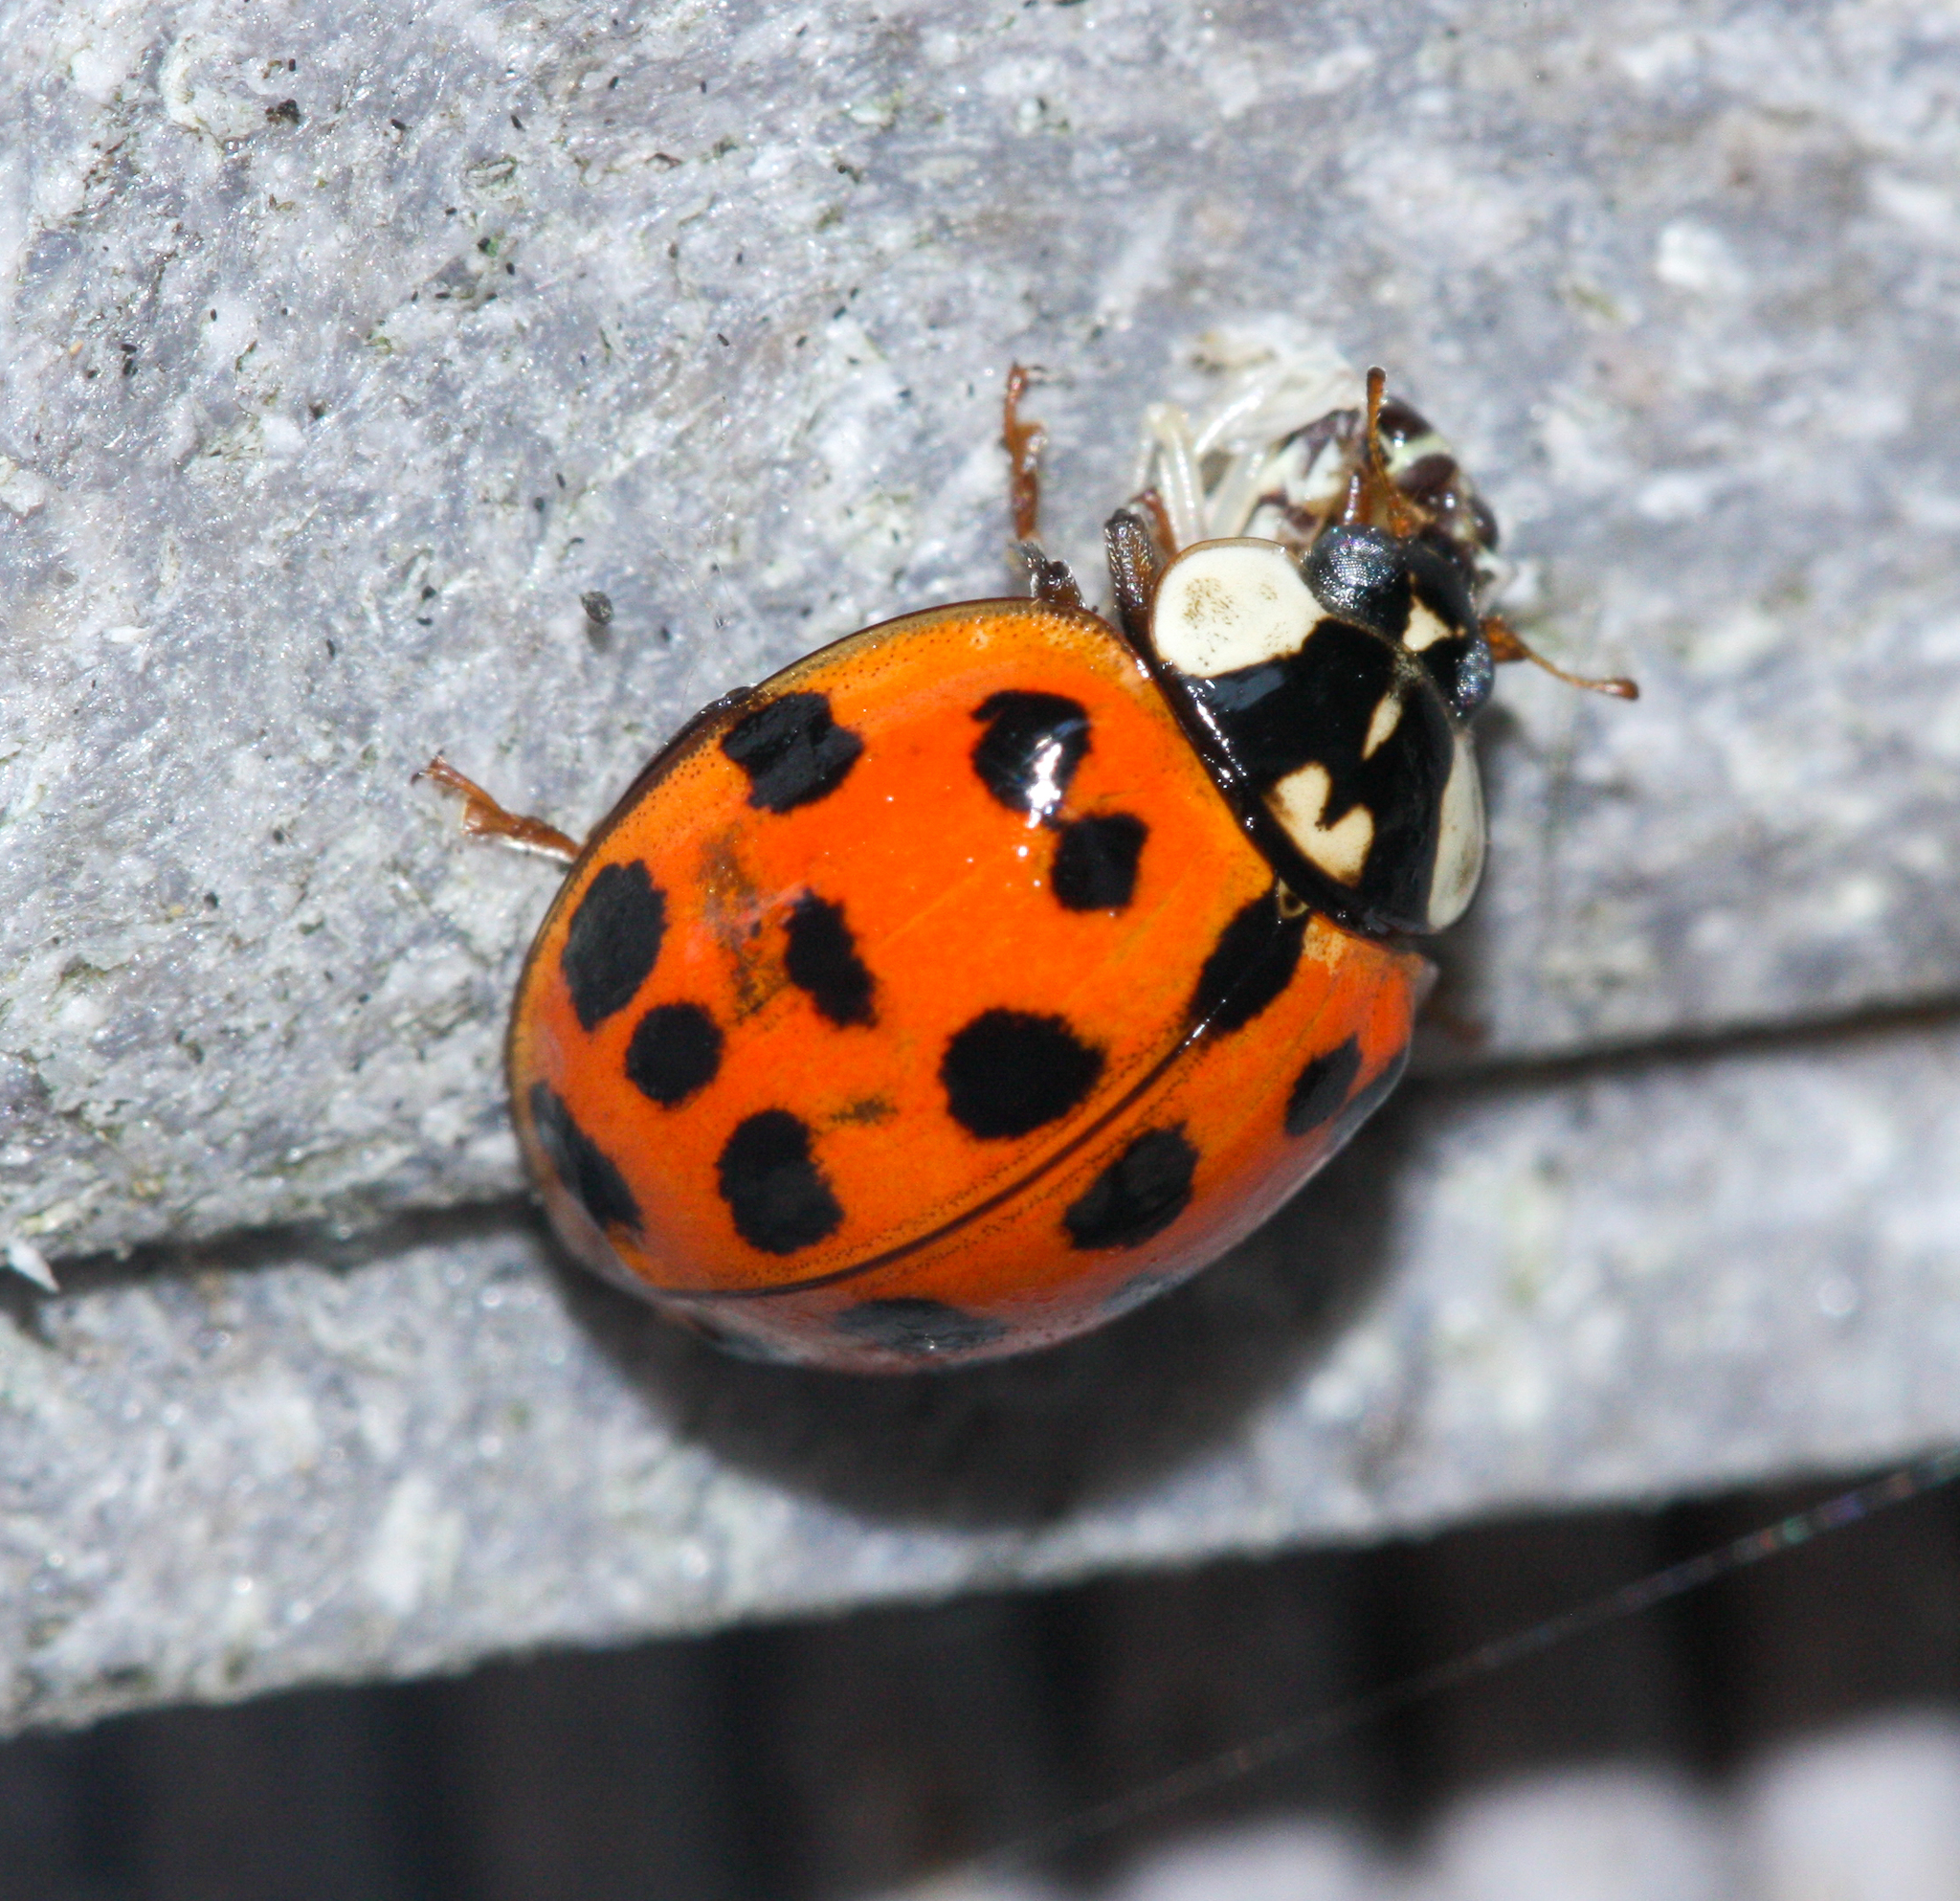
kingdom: Animalia
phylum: Arthropoda
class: Insecta
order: Coleoptera
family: Coccinellidae
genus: Harmonia
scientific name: Harmonia axyridis
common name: Harlequin ladybird
